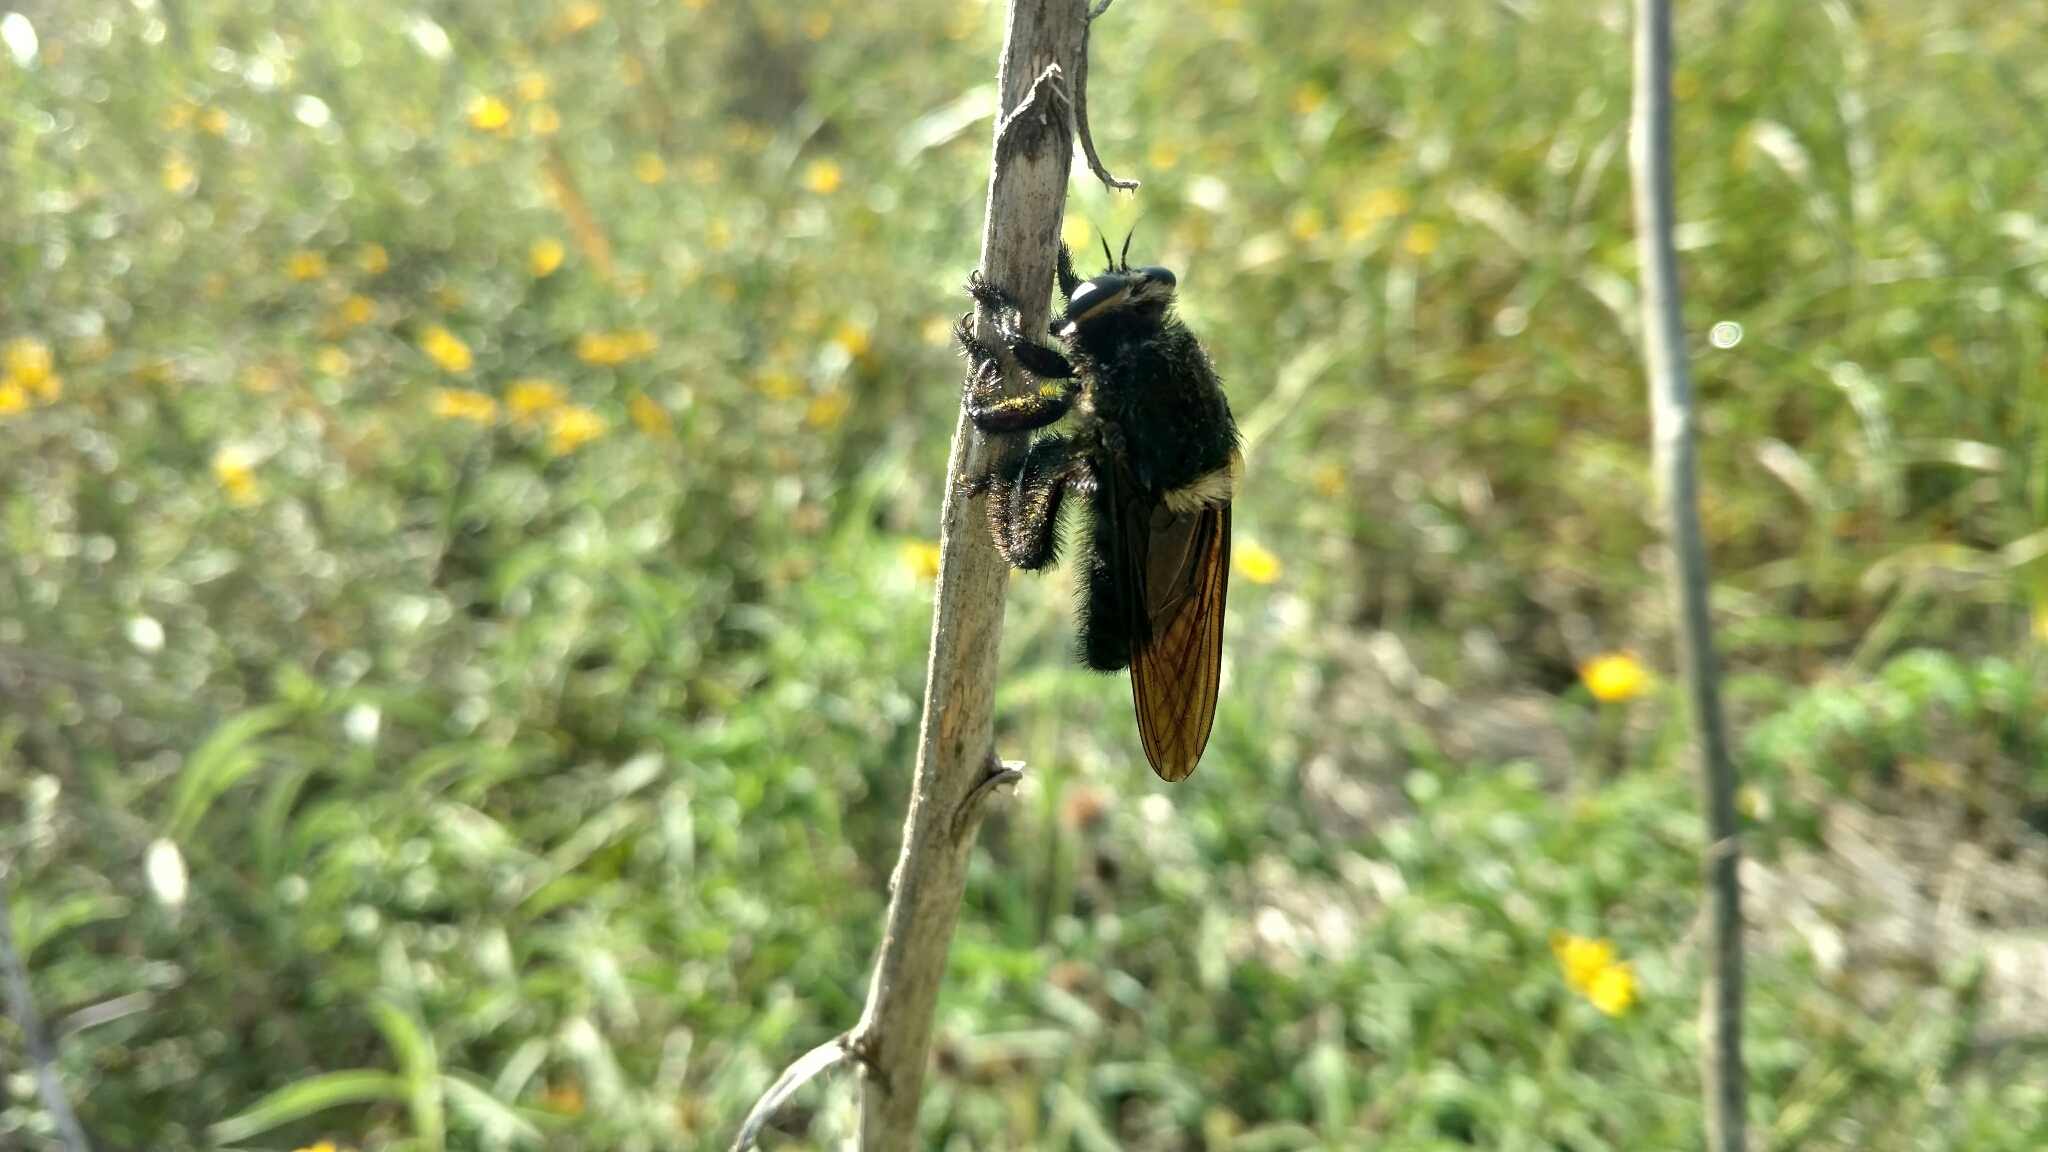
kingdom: Animalia
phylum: Arthropoda
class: Insecta
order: Diptera
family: Asilidae
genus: Mallophora
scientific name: Mallophora leschenaultii
